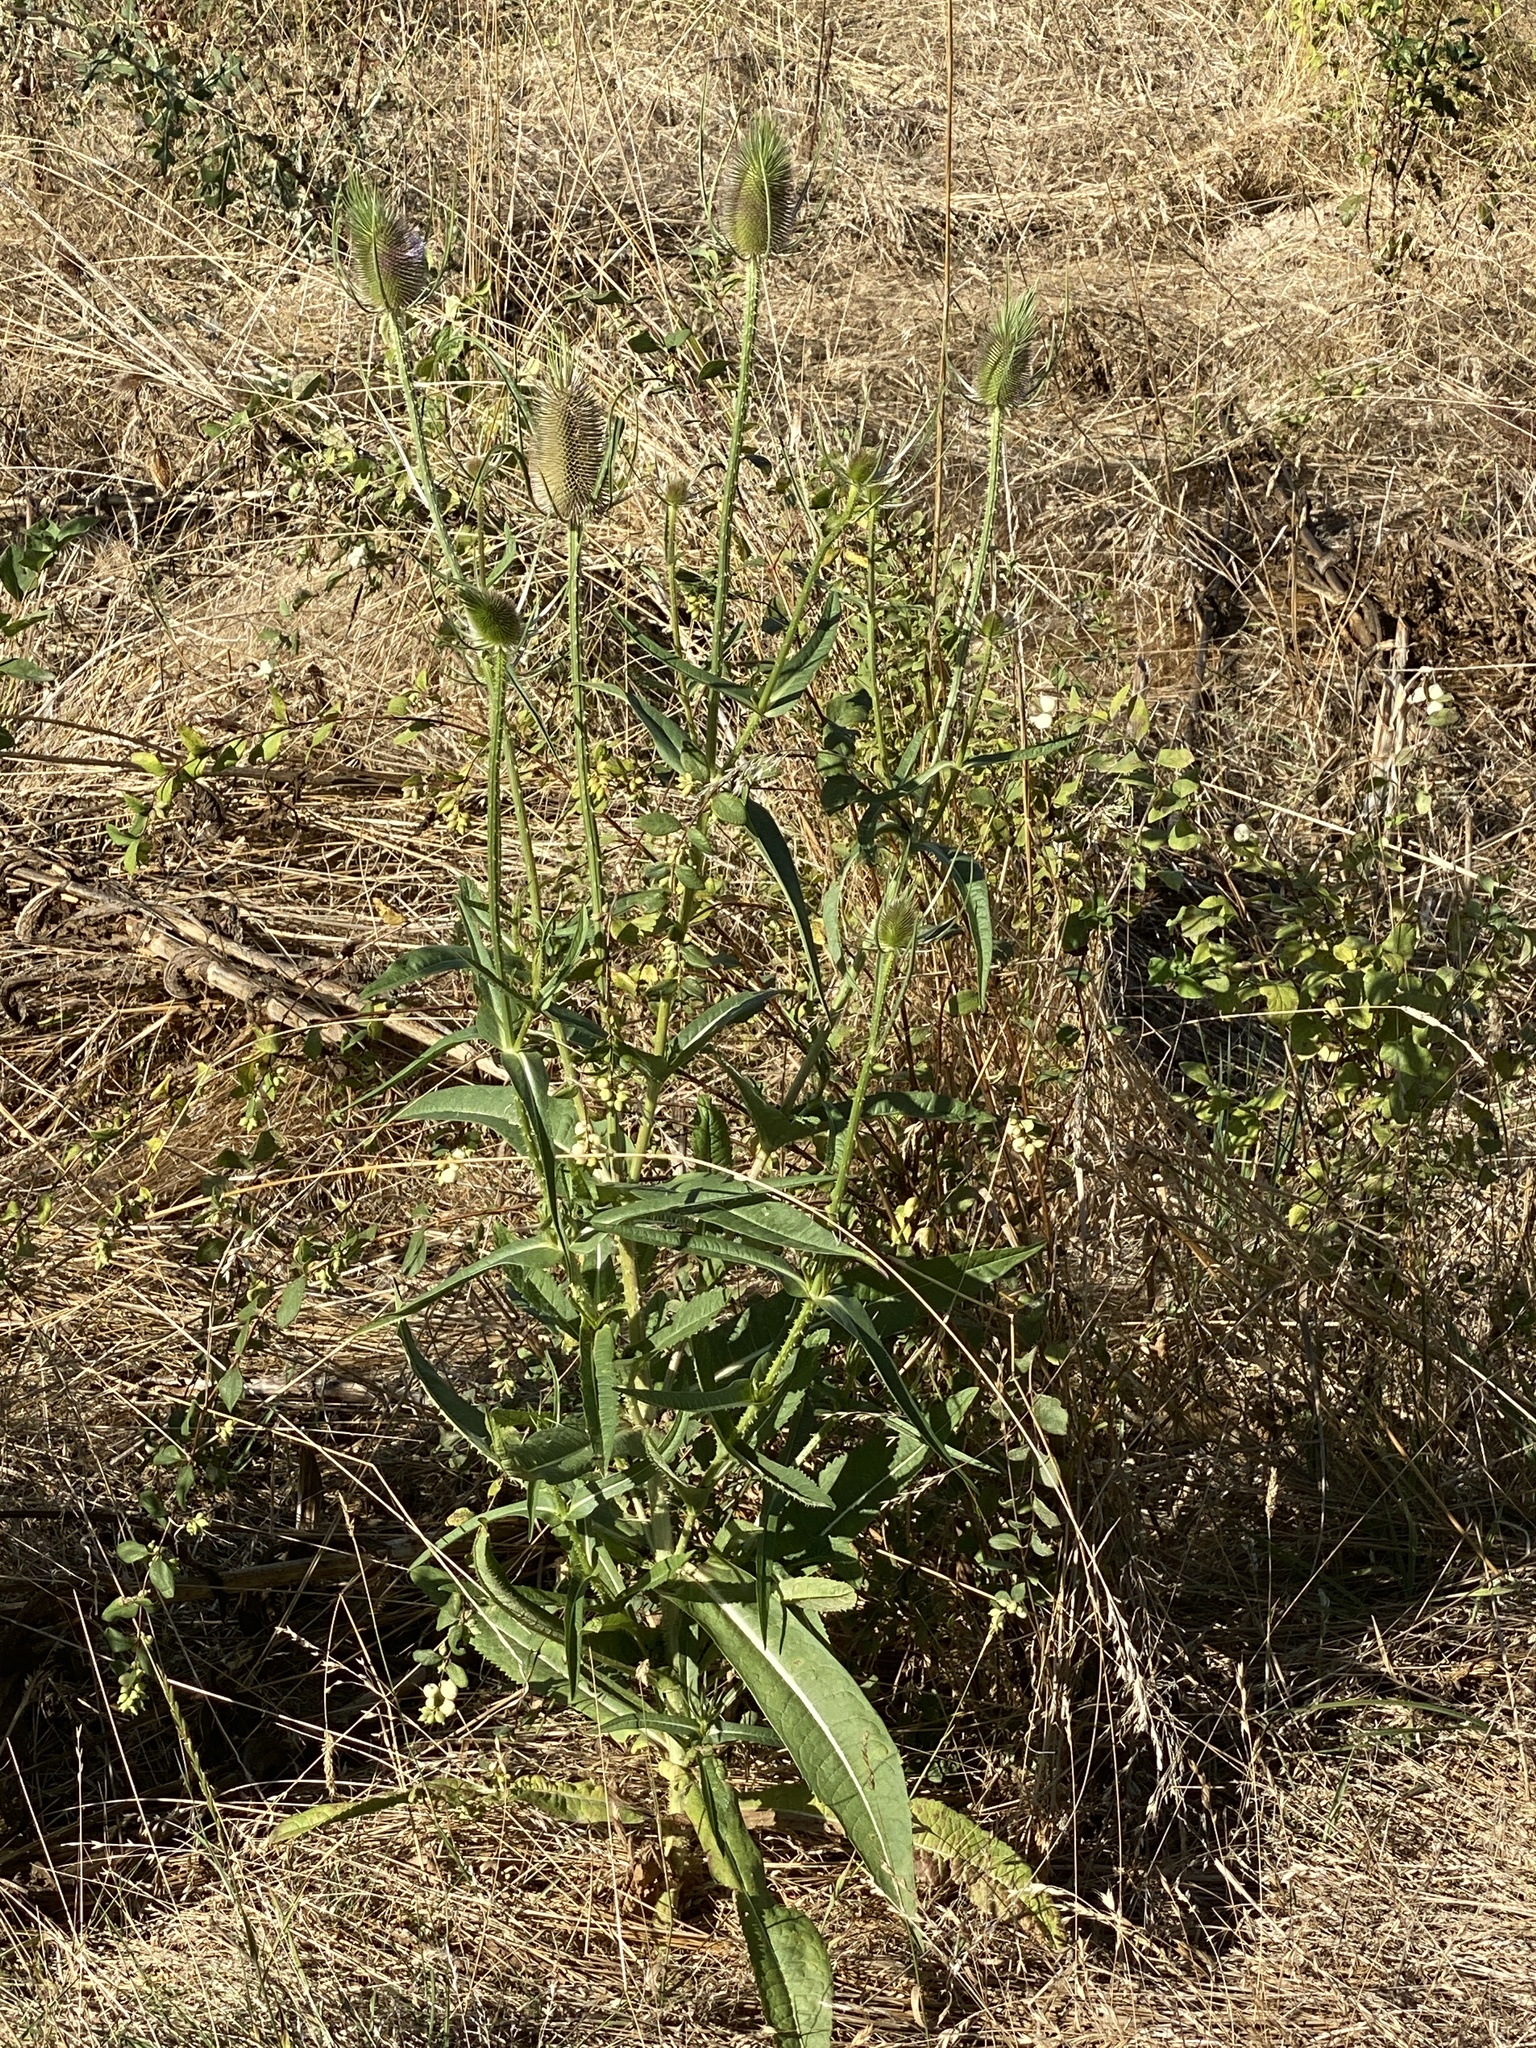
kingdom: Plantae
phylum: Tracheophyta
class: Magnoliopsida
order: Dipsacales
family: Caprifoliaceae
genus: Dipsacus
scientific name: Dipsacus fullonum
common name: Teasel
